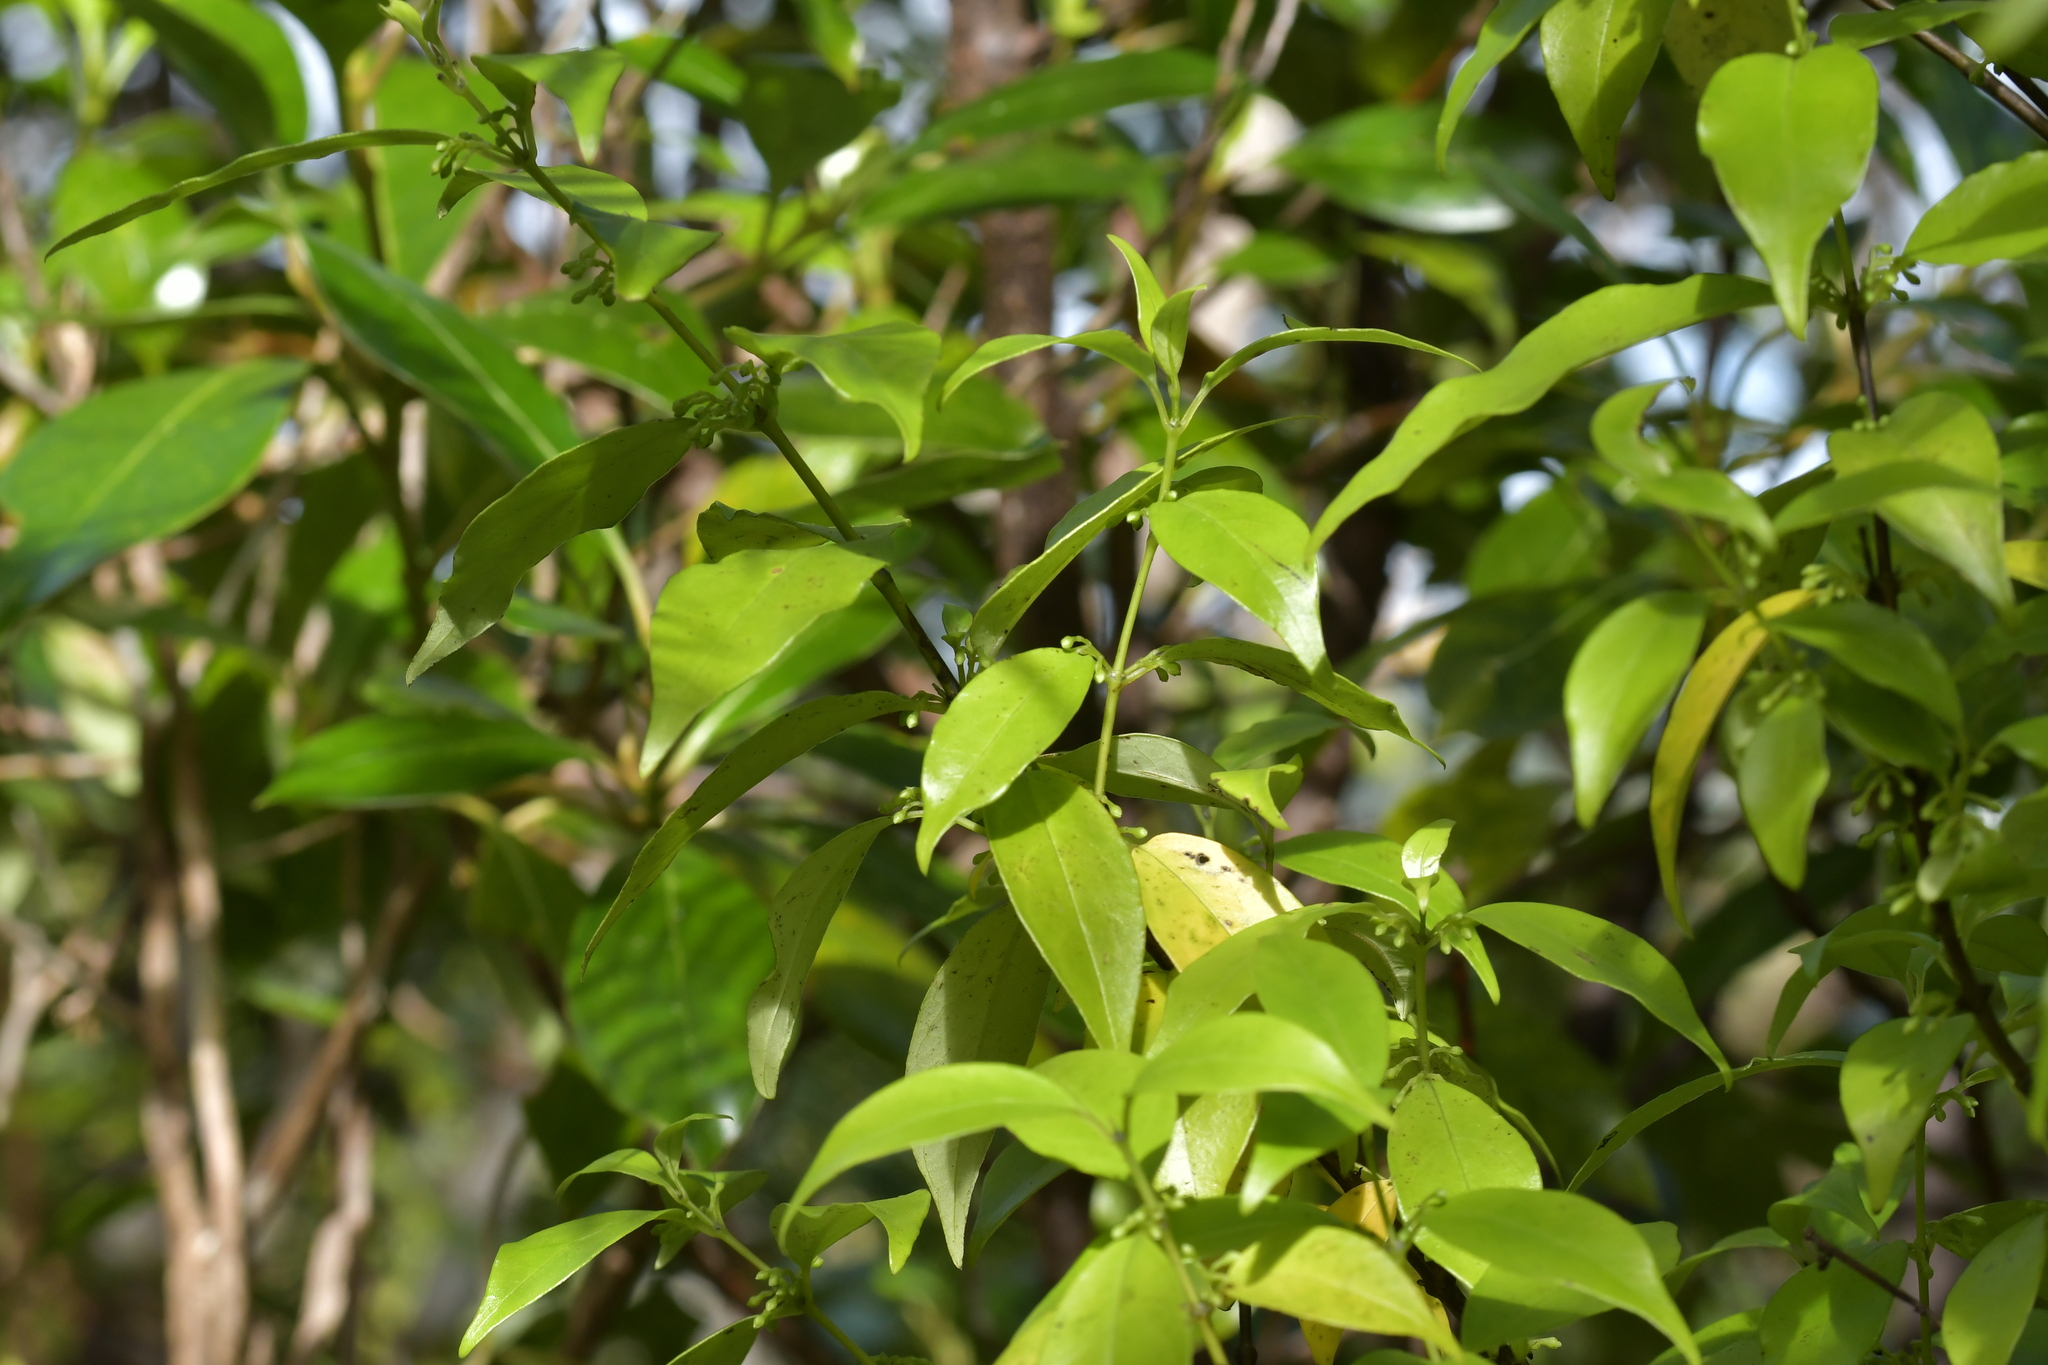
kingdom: Plantae
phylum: Tracheophyta
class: Magnoliopsida
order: Gentianales
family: Loganiaceae
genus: Geniostoma
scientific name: Geniostoma ligustrifolium
